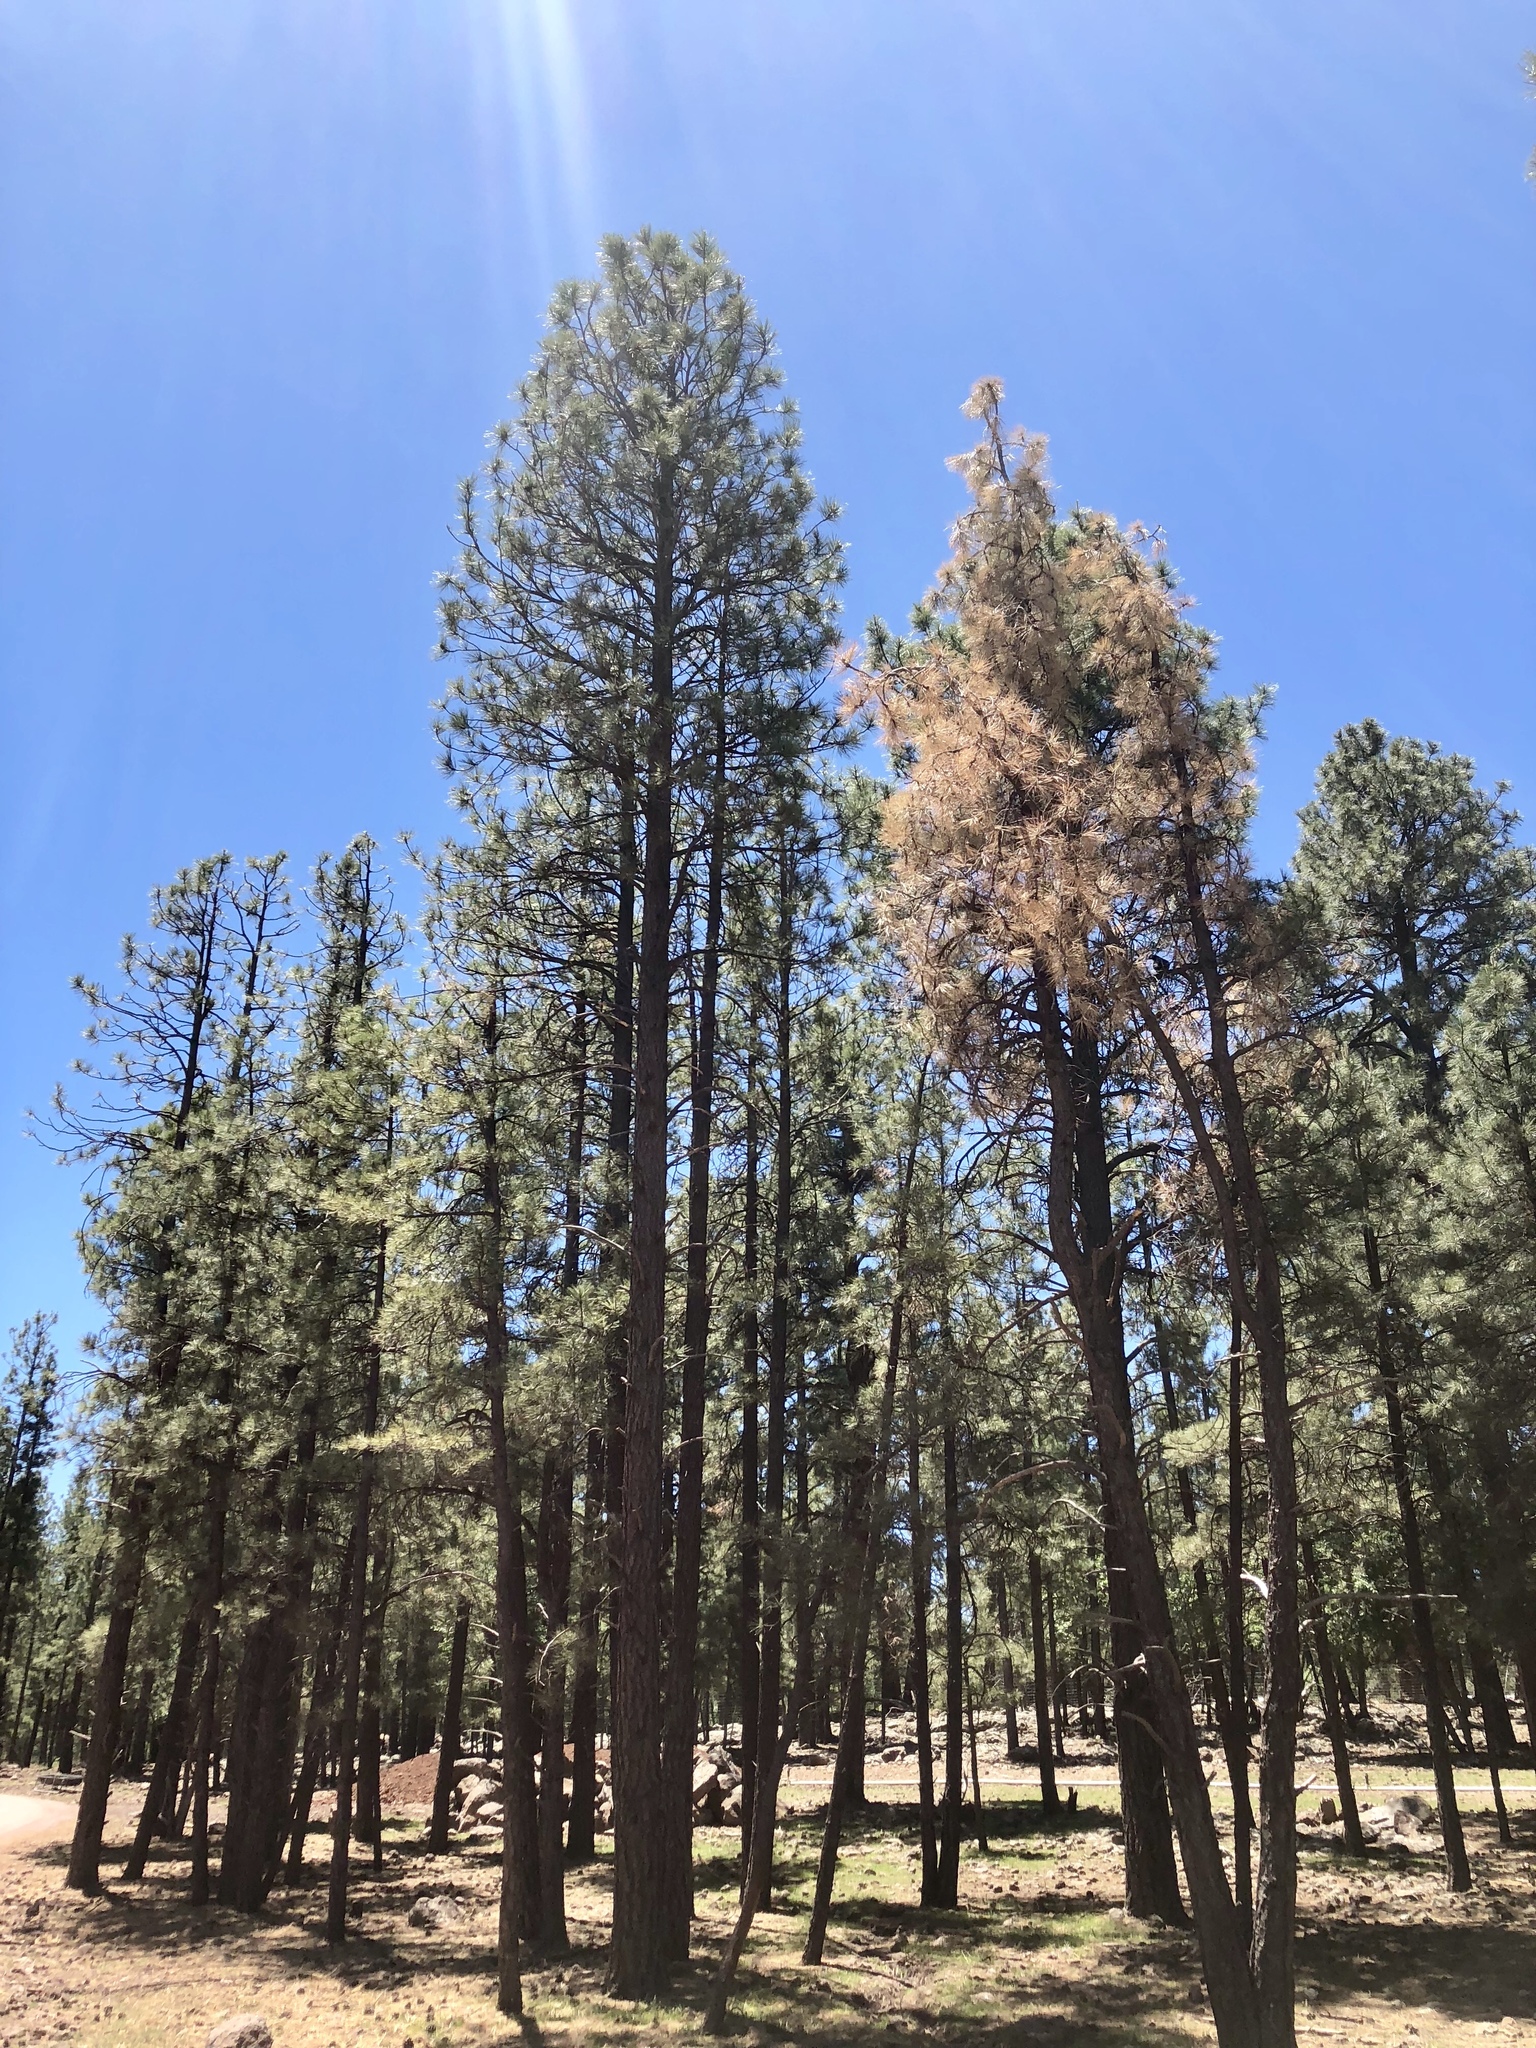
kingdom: Plantae
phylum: Tracheophyta
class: Pinopsida
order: Pinales
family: Pinaceae
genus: Pinus
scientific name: Pinus ponderosa
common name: Western yellow-pine
